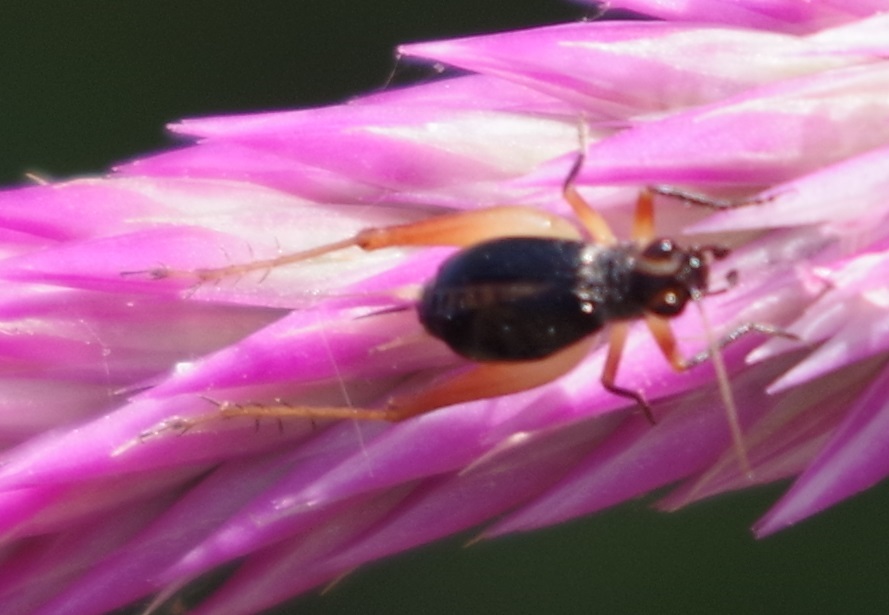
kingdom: Animalia
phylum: Arthropoda
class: Insecta
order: Orthoptera
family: Trigonidiidae
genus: Trigonidium
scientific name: Trigonidium cicindeloides
